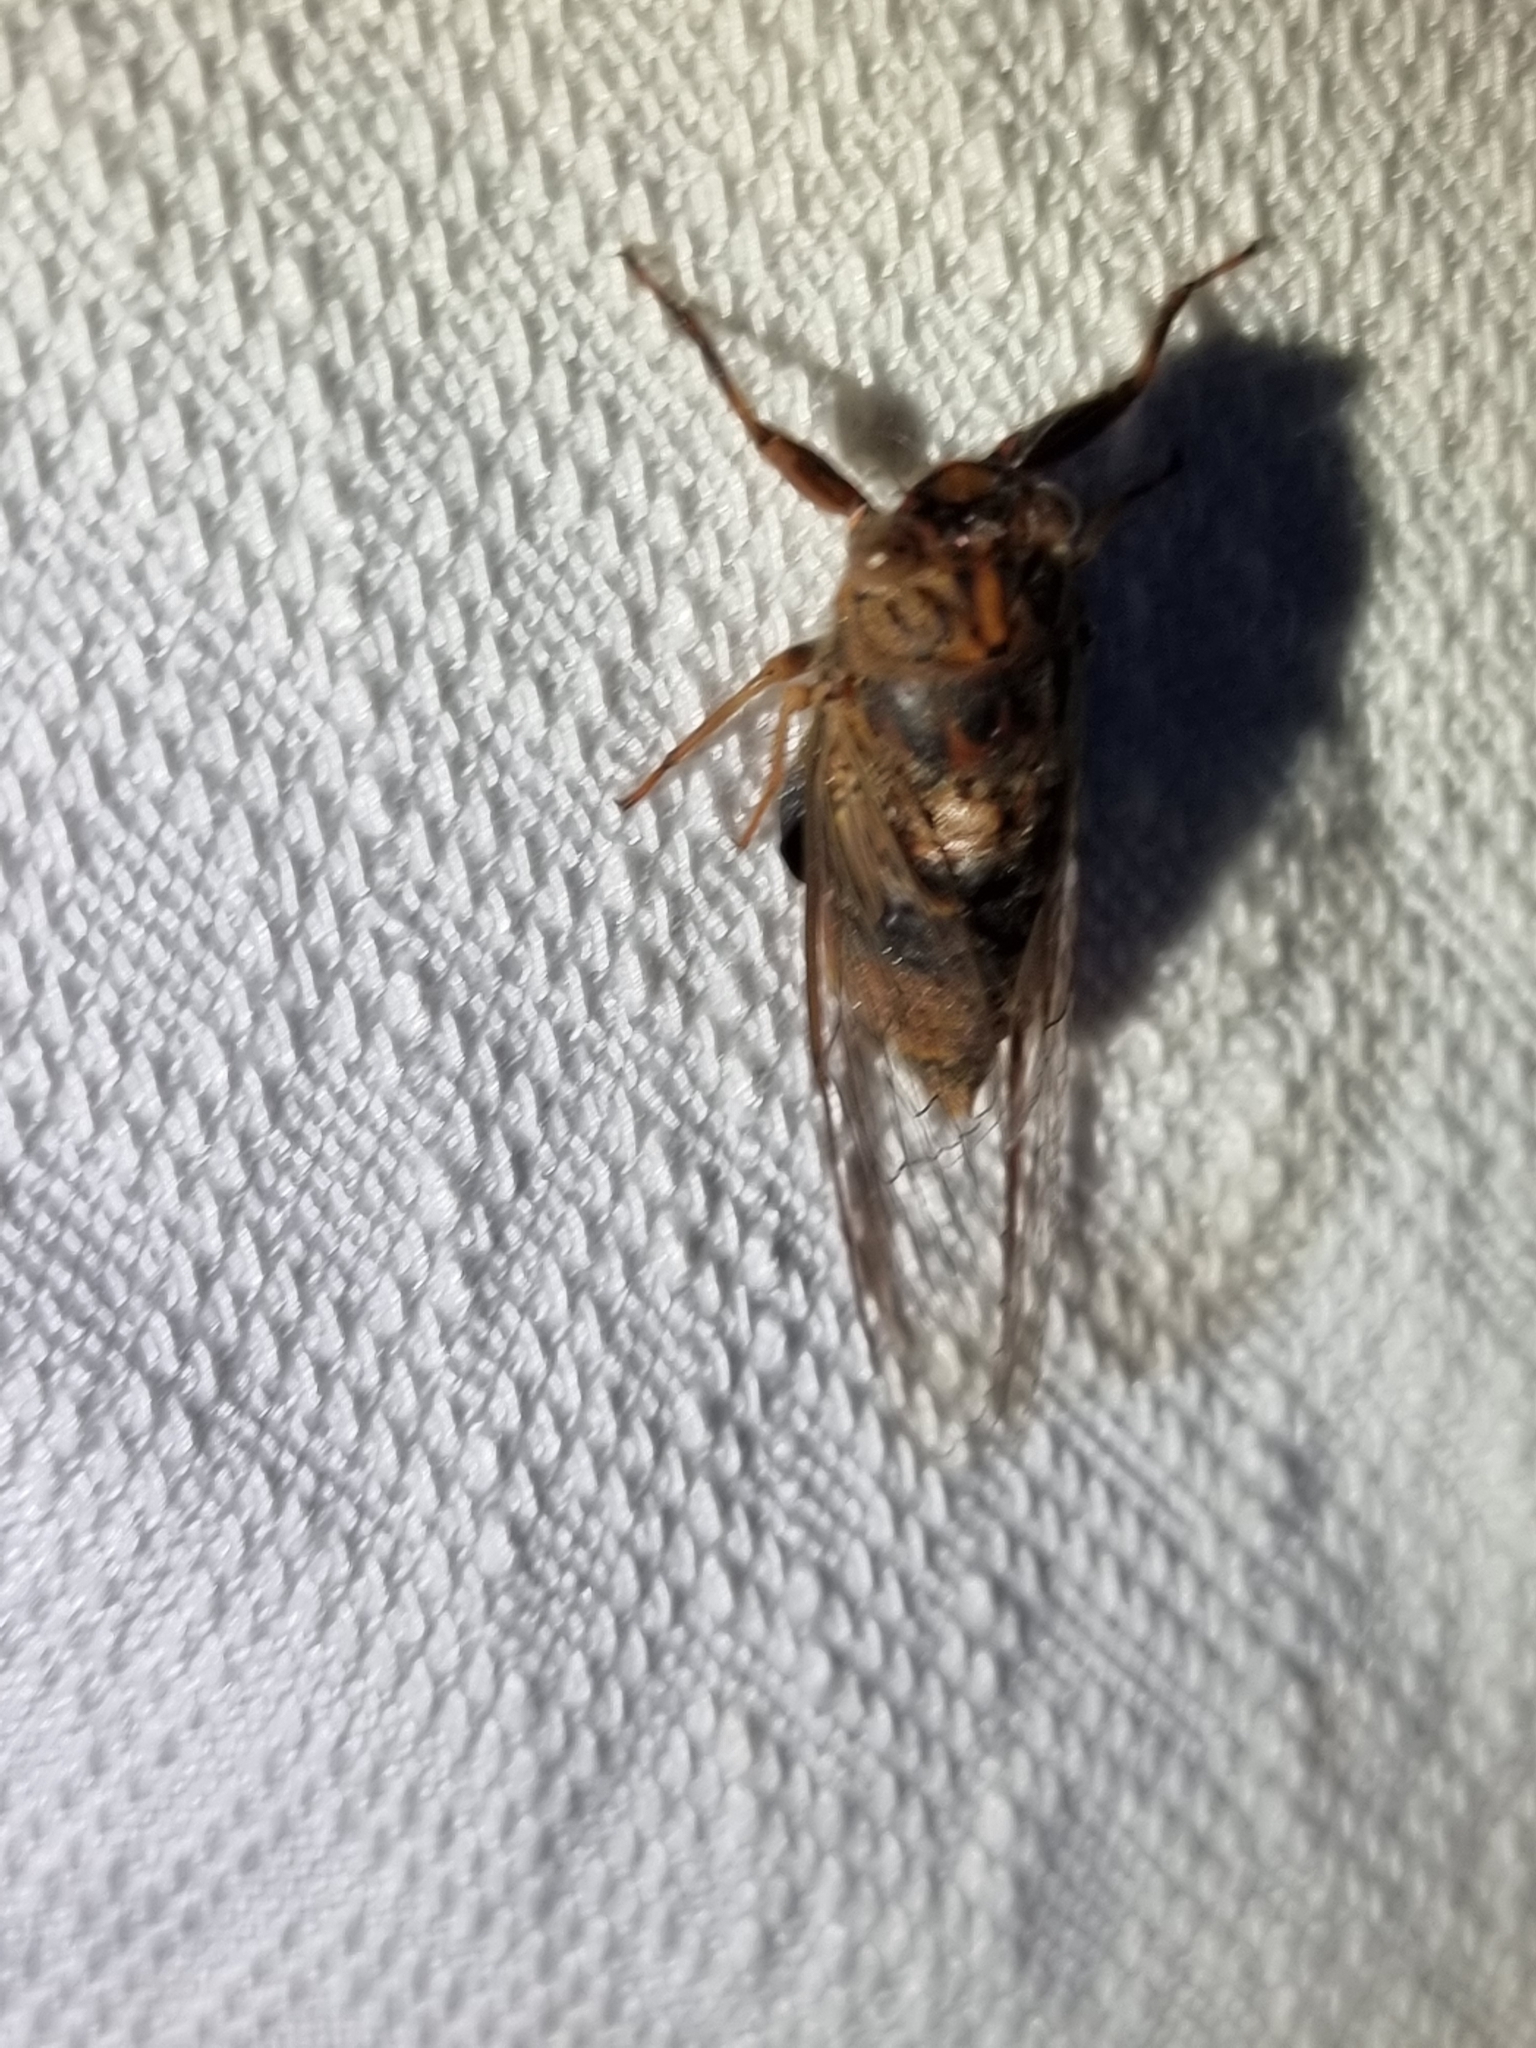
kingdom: Animalia
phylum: Arthropoda
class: Insecta
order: Hemiptera
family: Cicadidae
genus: Birrima
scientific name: Birrima varians
